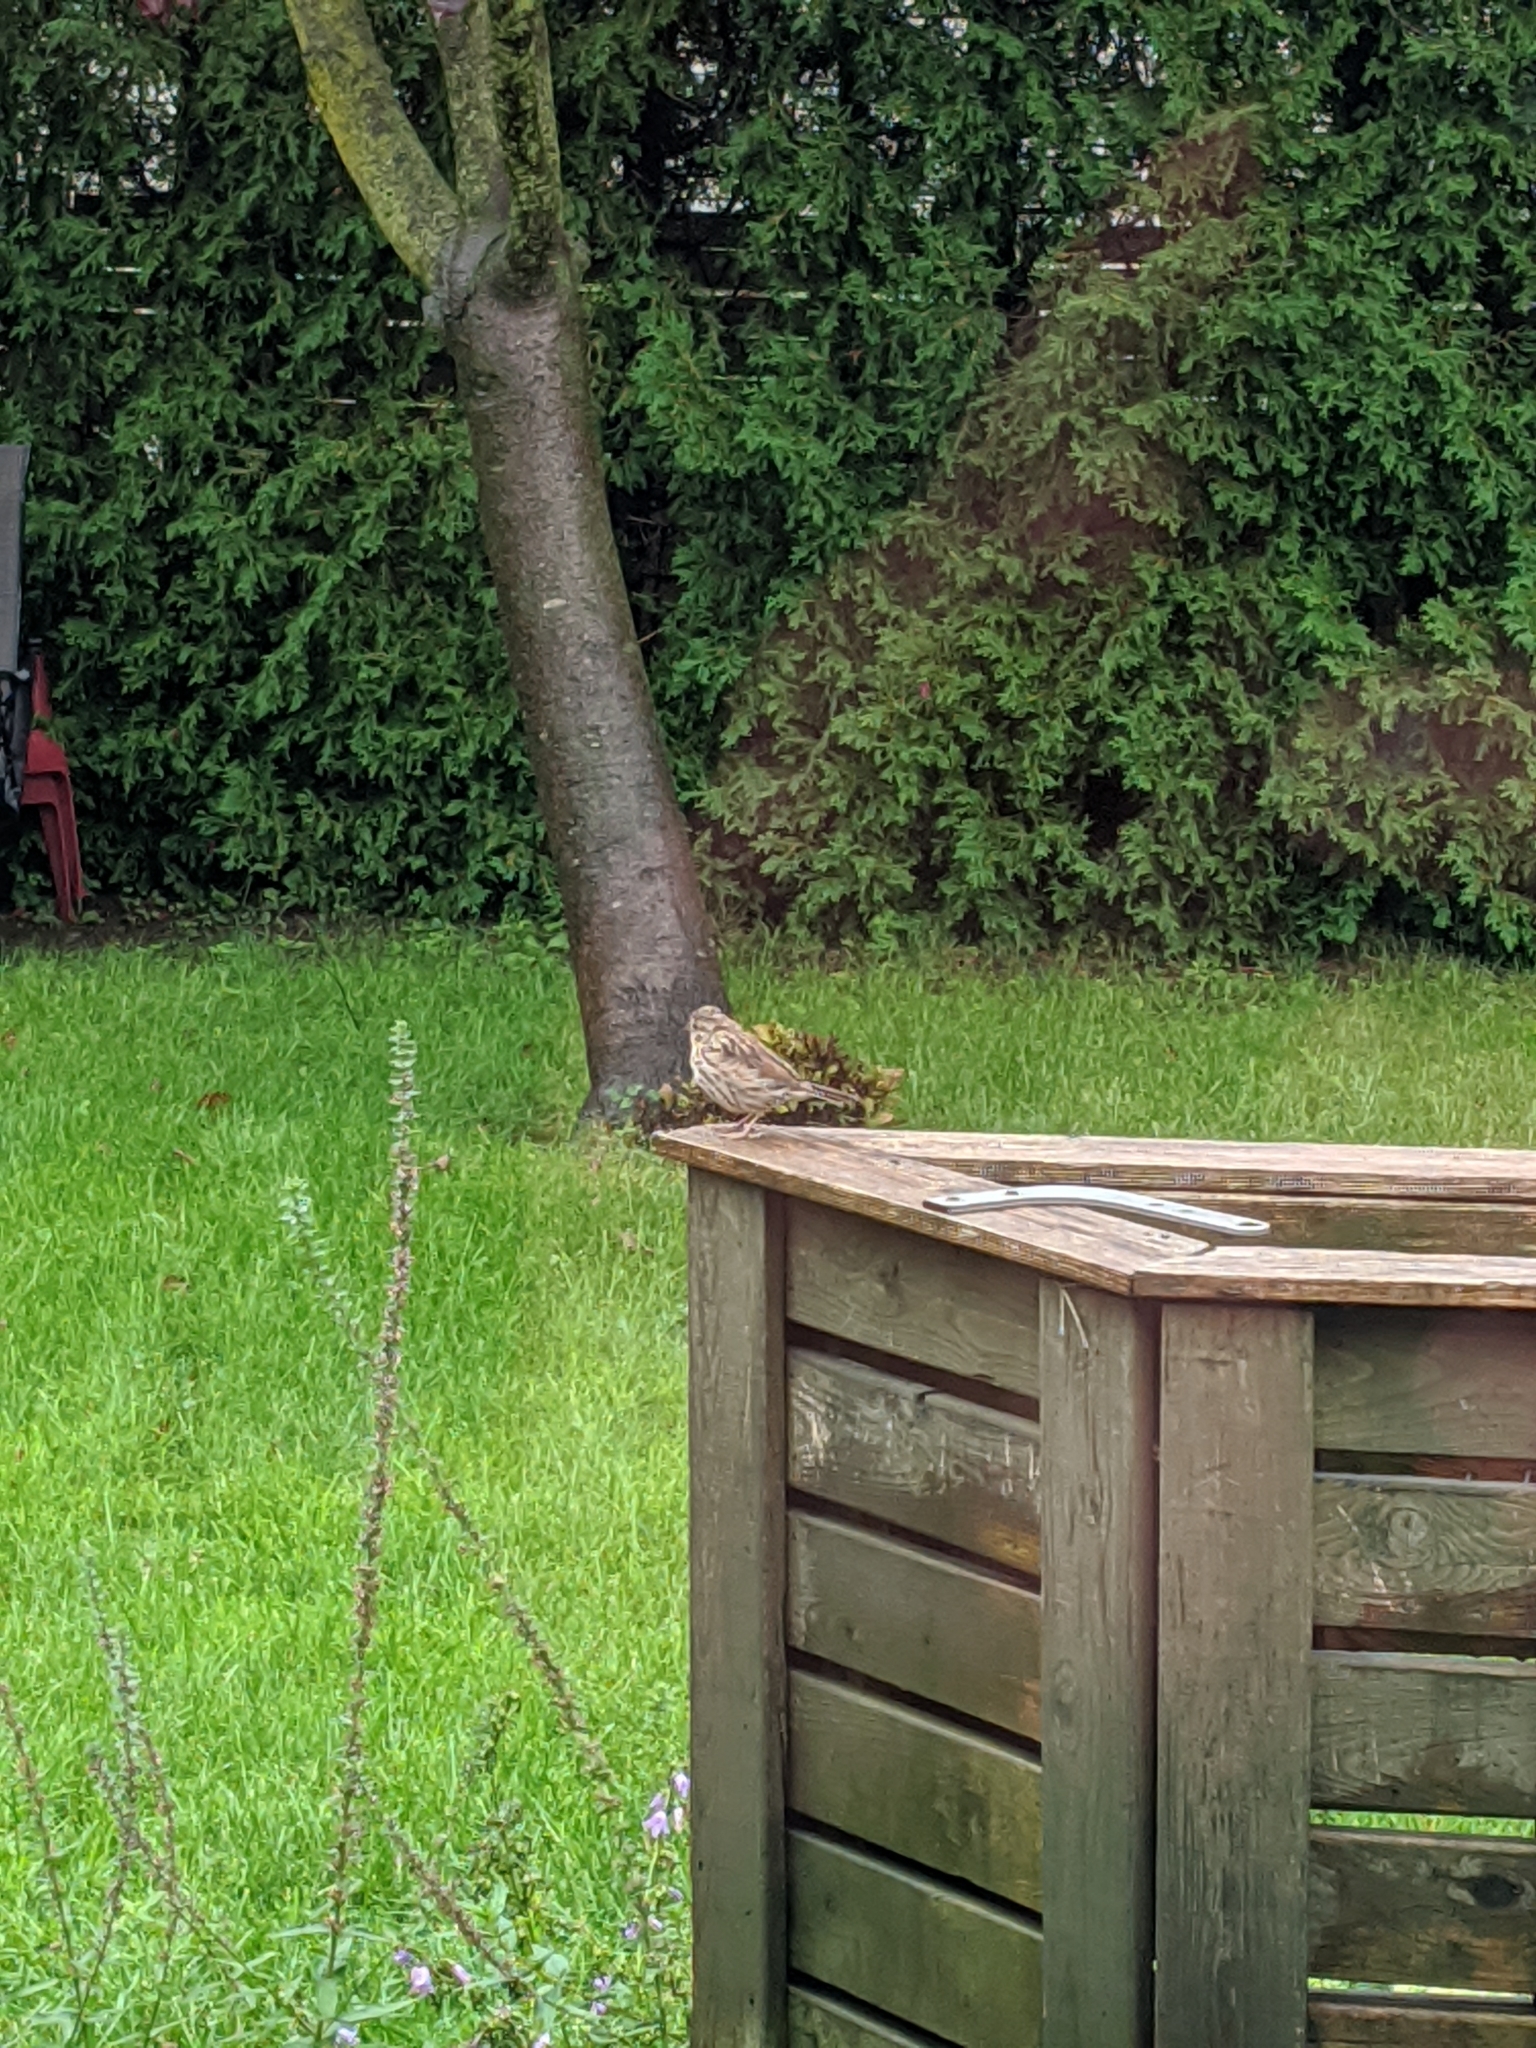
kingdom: Animalia
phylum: Chordata
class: Aves
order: Passeriformes
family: Passerellidae
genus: Melospiza
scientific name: Melospiza melodia
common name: Song sparrow
